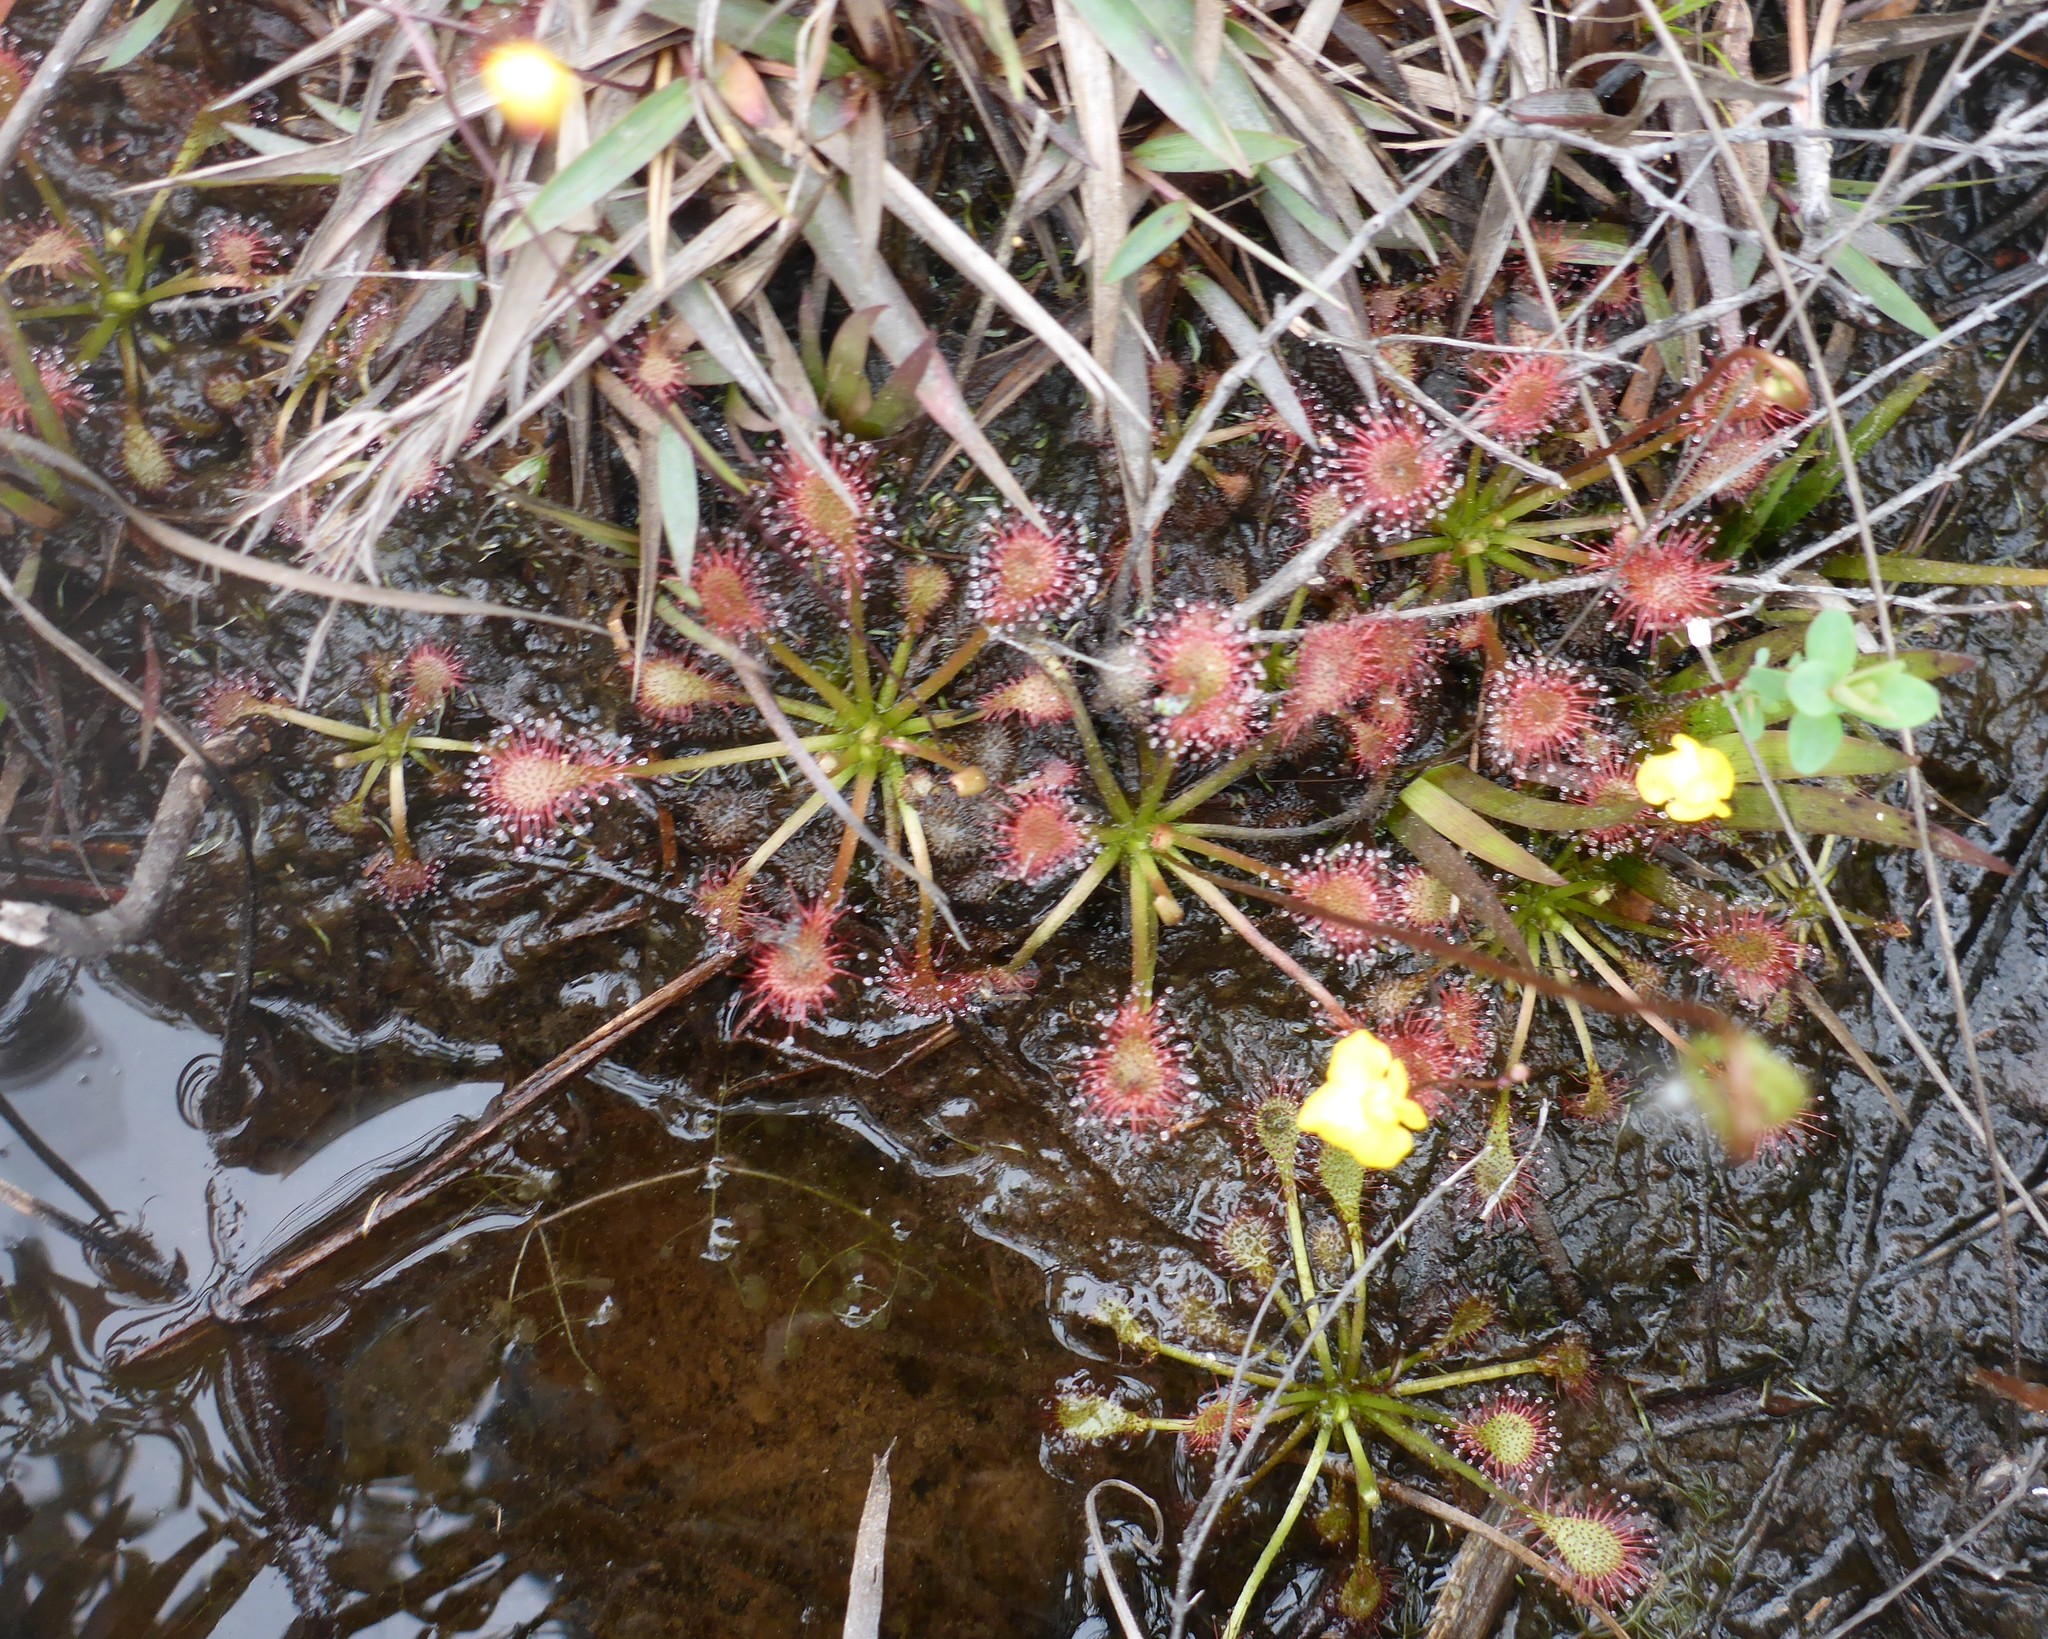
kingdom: Plantae
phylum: Tracheophyta
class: Magnoliopsida
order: Caryophyllales
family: Droseraceae
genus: Drosera
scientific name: Drosera capillaris
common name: Pink sundew
